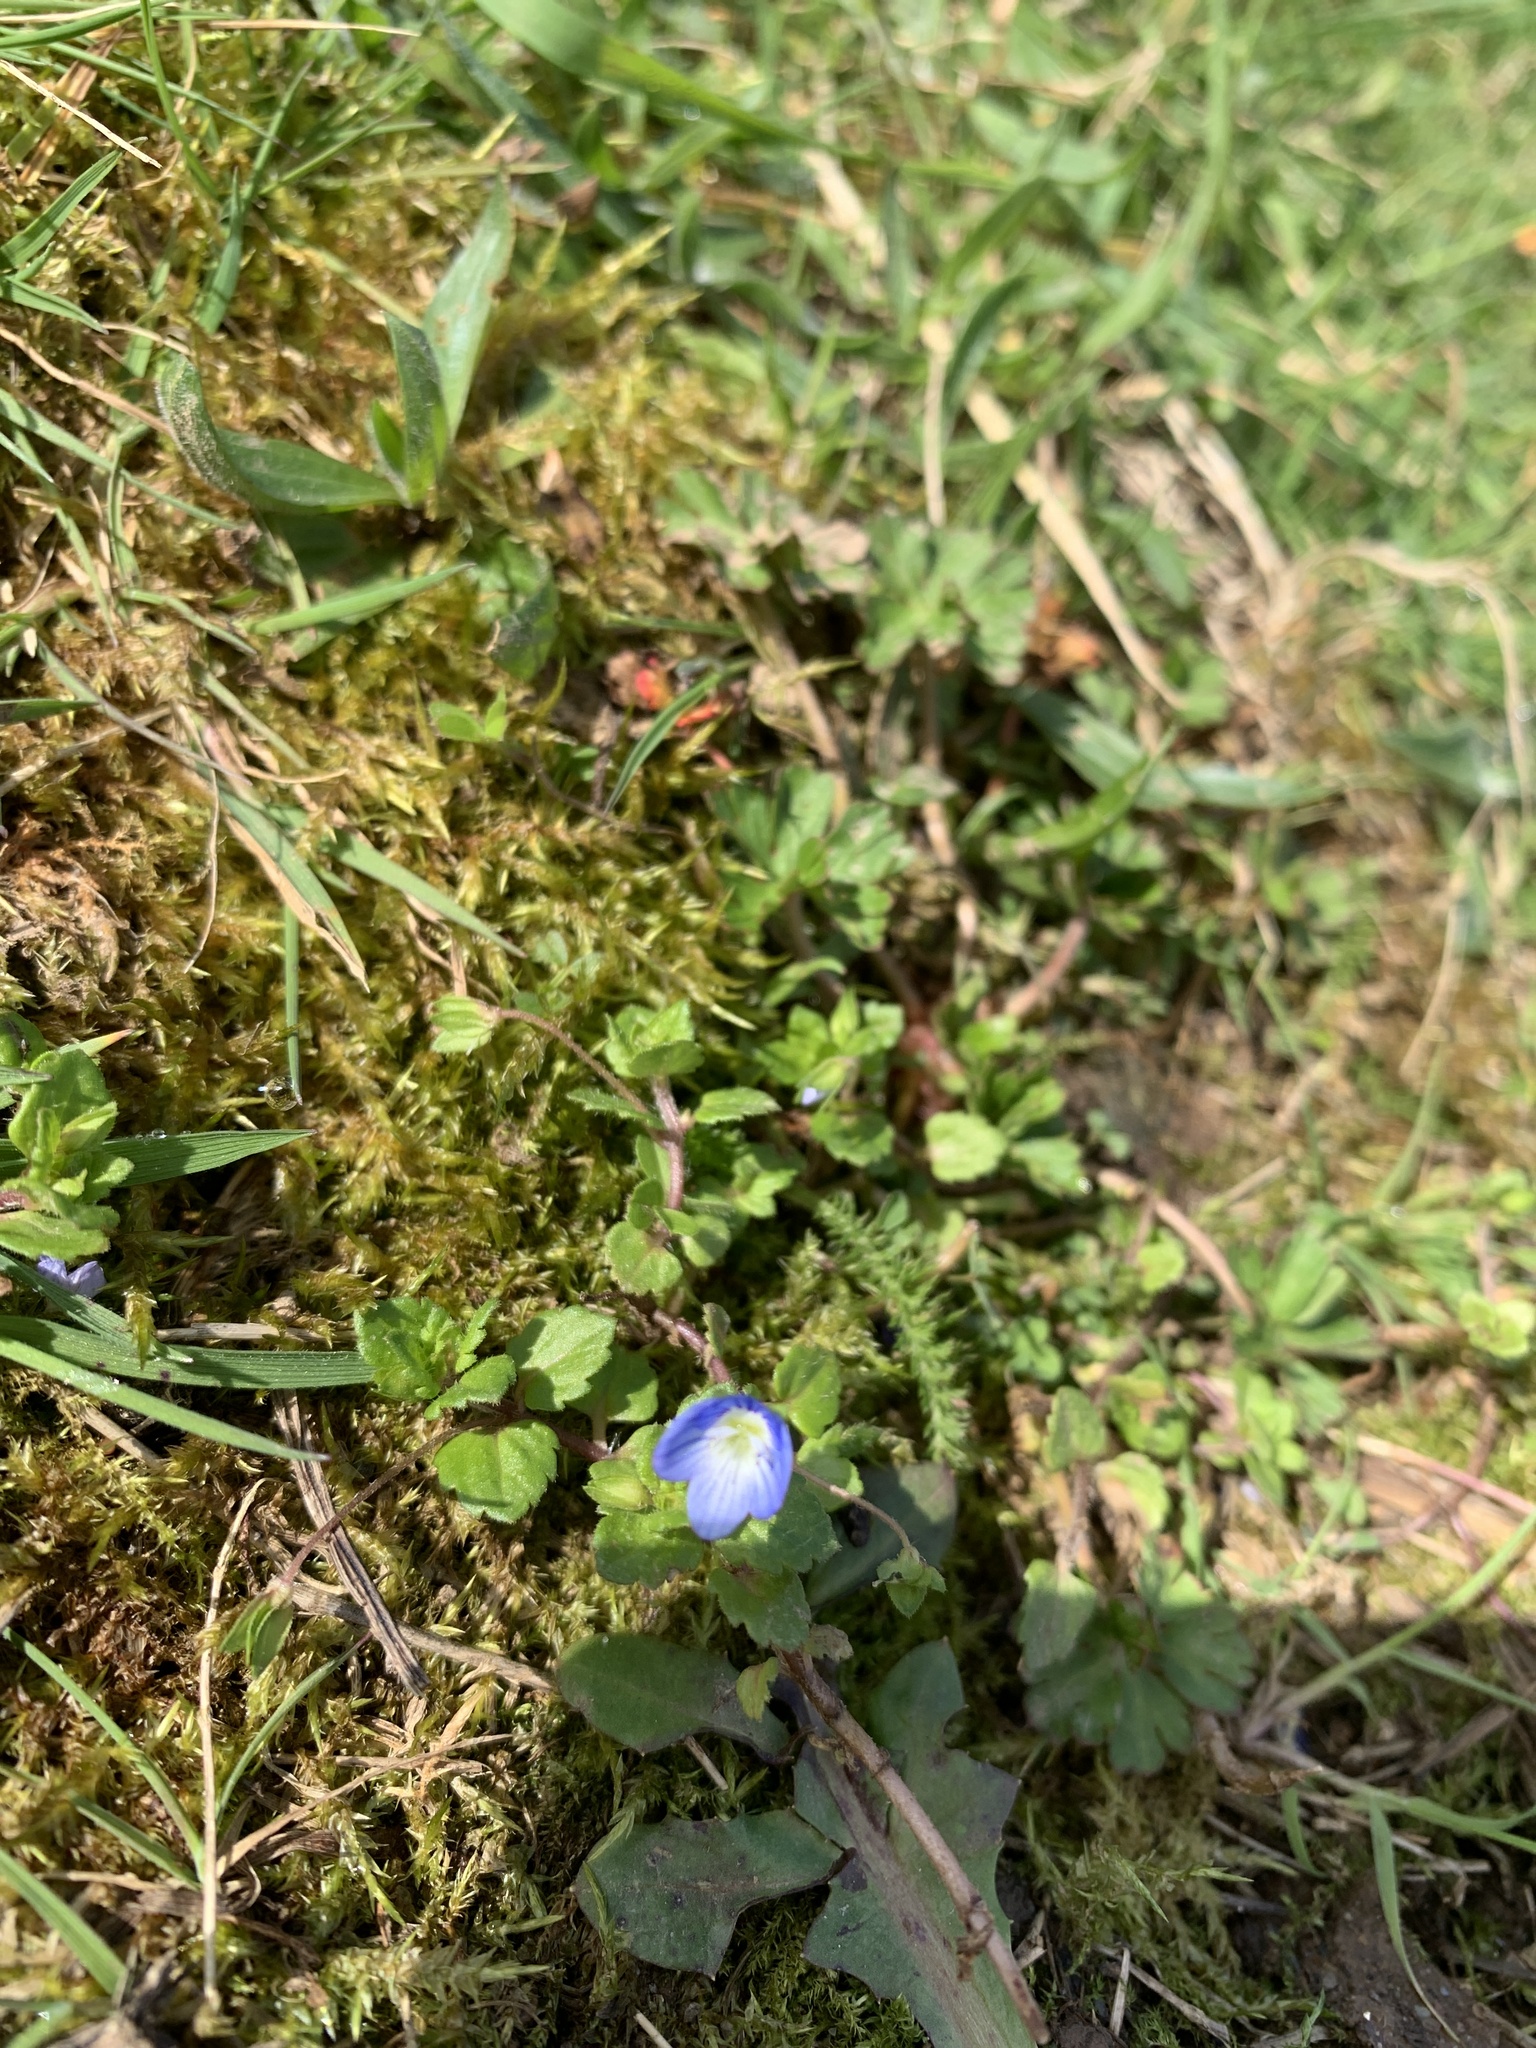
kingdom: Plantae
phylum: Tracheophyta
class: Magnoliopsida
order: Lamiales
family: Plantaginaceae
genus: Veronica
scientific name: Veronica persica
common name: Common field-speedwell
